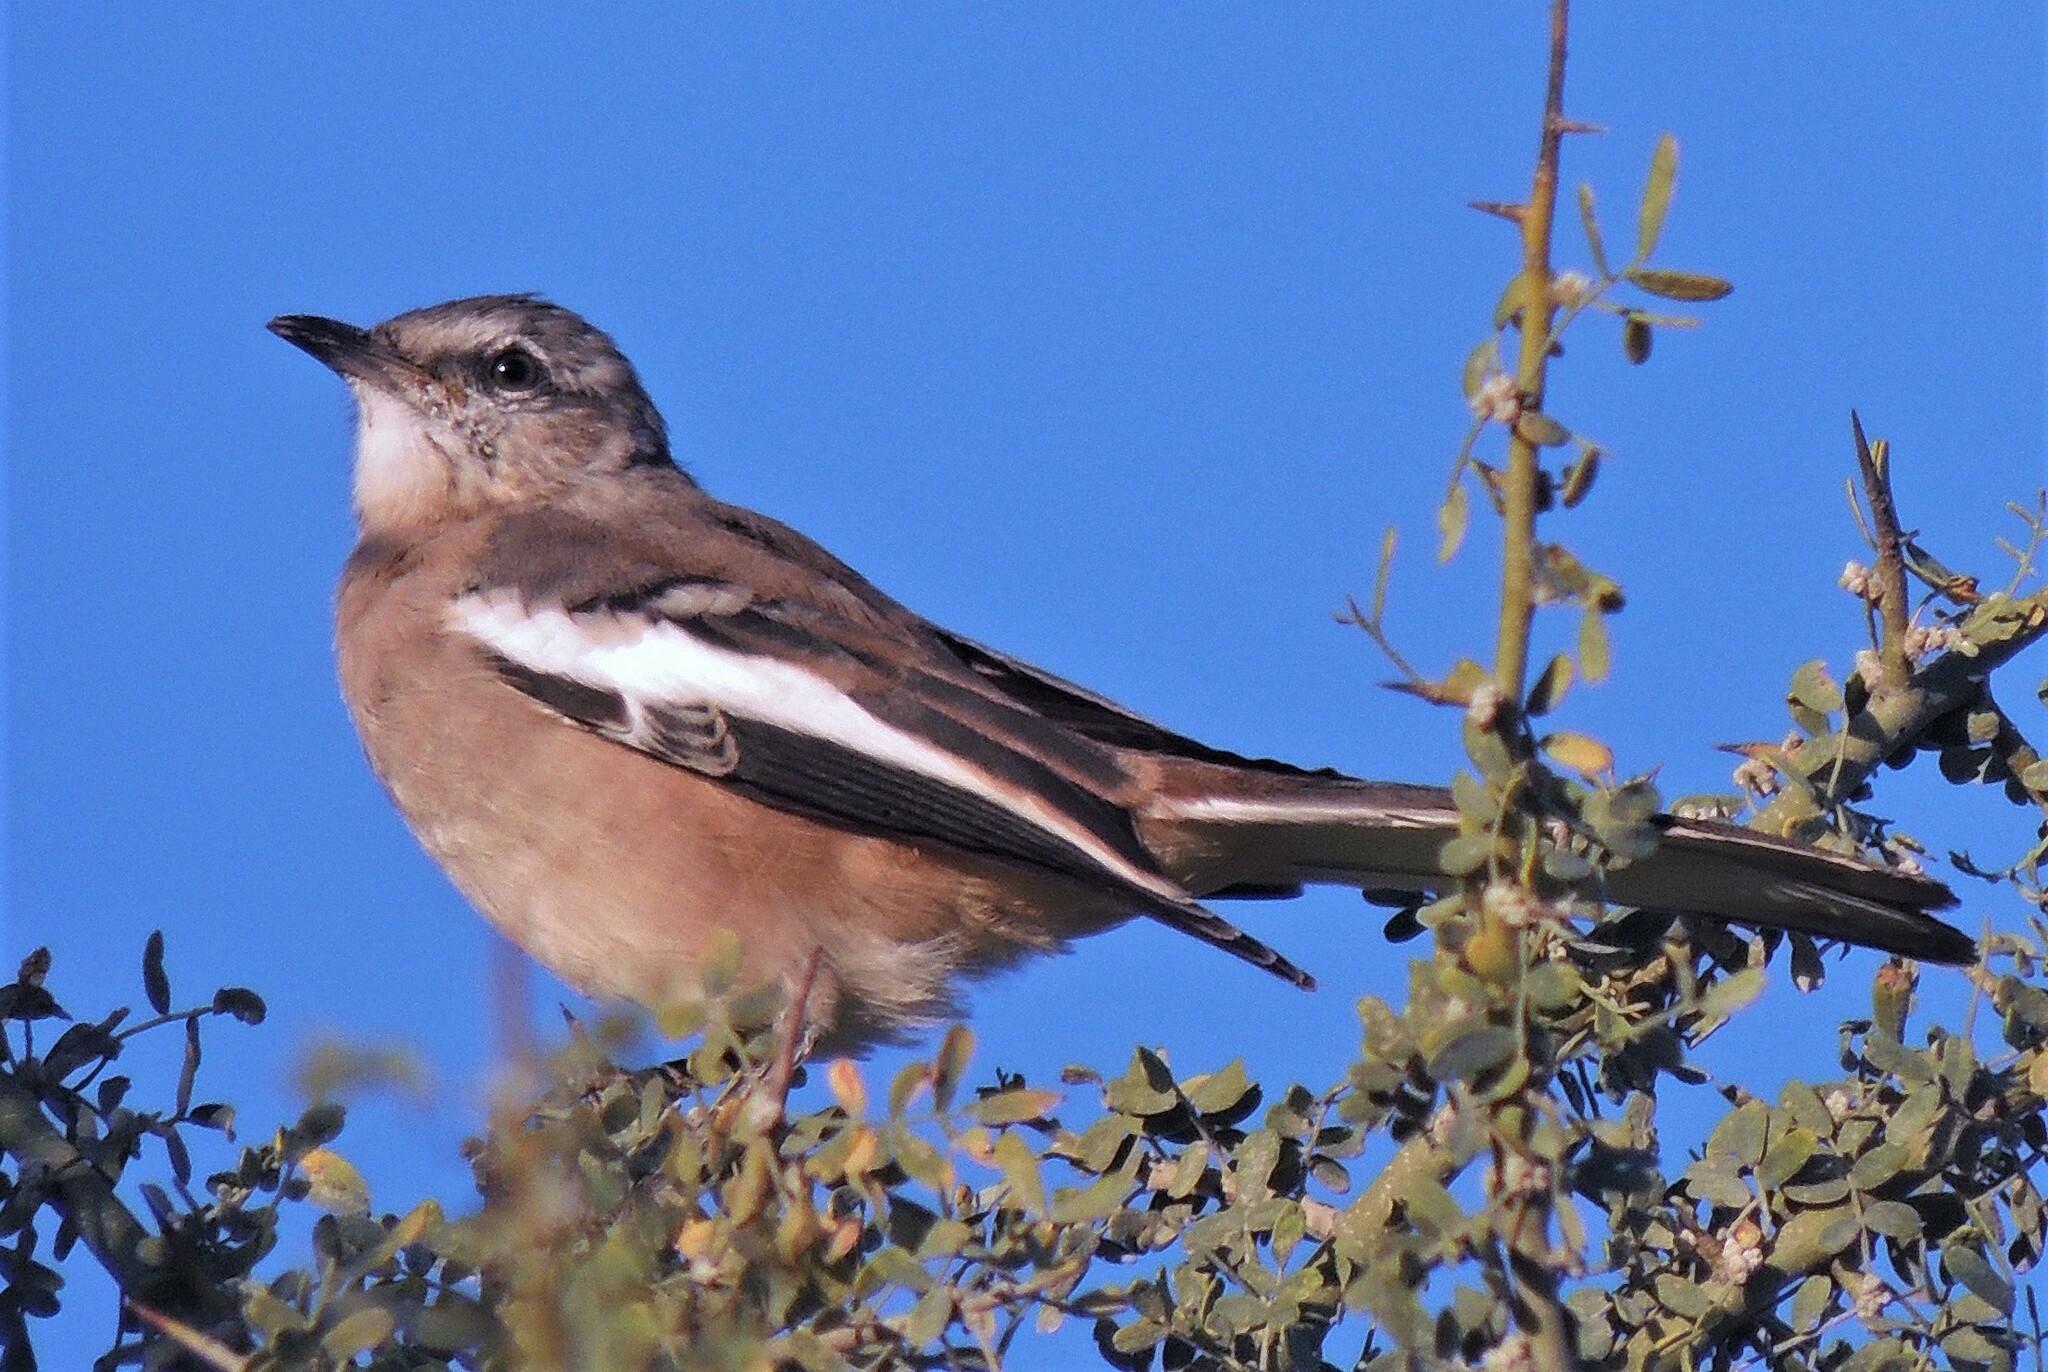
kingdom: Animalia
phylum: Chordata
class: Aves
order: Passeriformes
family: Mimidae
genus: Mimus
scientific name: Mimus triurus
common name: White-banded mockingbird
